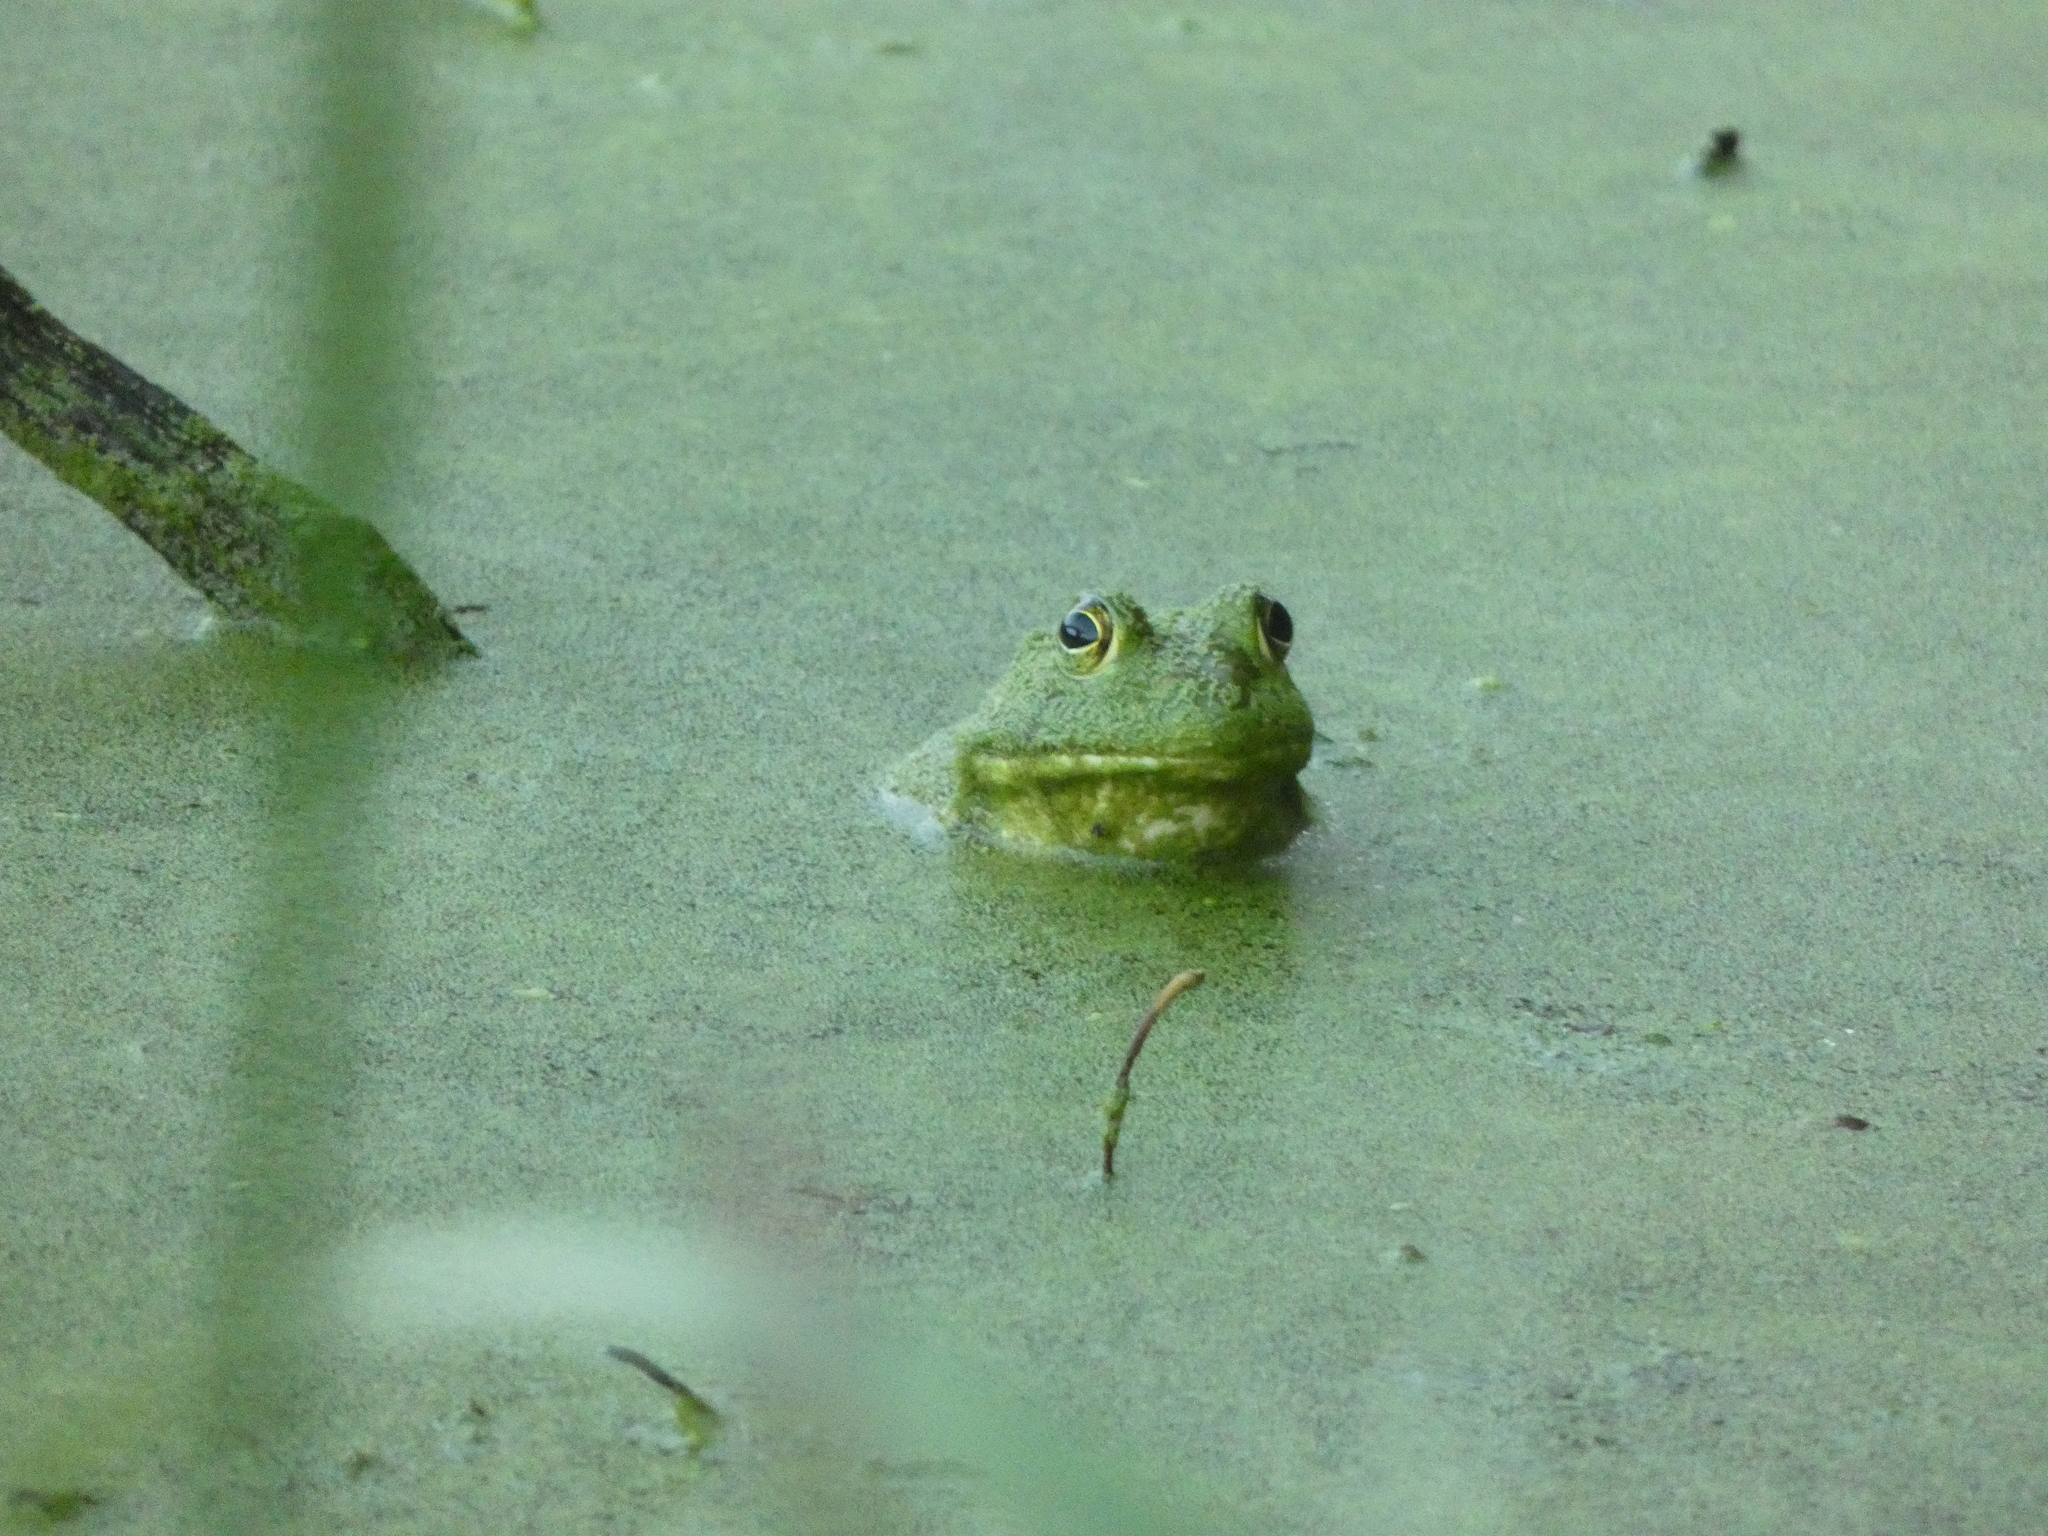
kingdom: Animalia
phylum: Chordata
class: Amphibia
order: Anura
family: Ranidae
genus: Lithobates
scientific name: Lithobates catesbeianus
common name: American bullfrog
